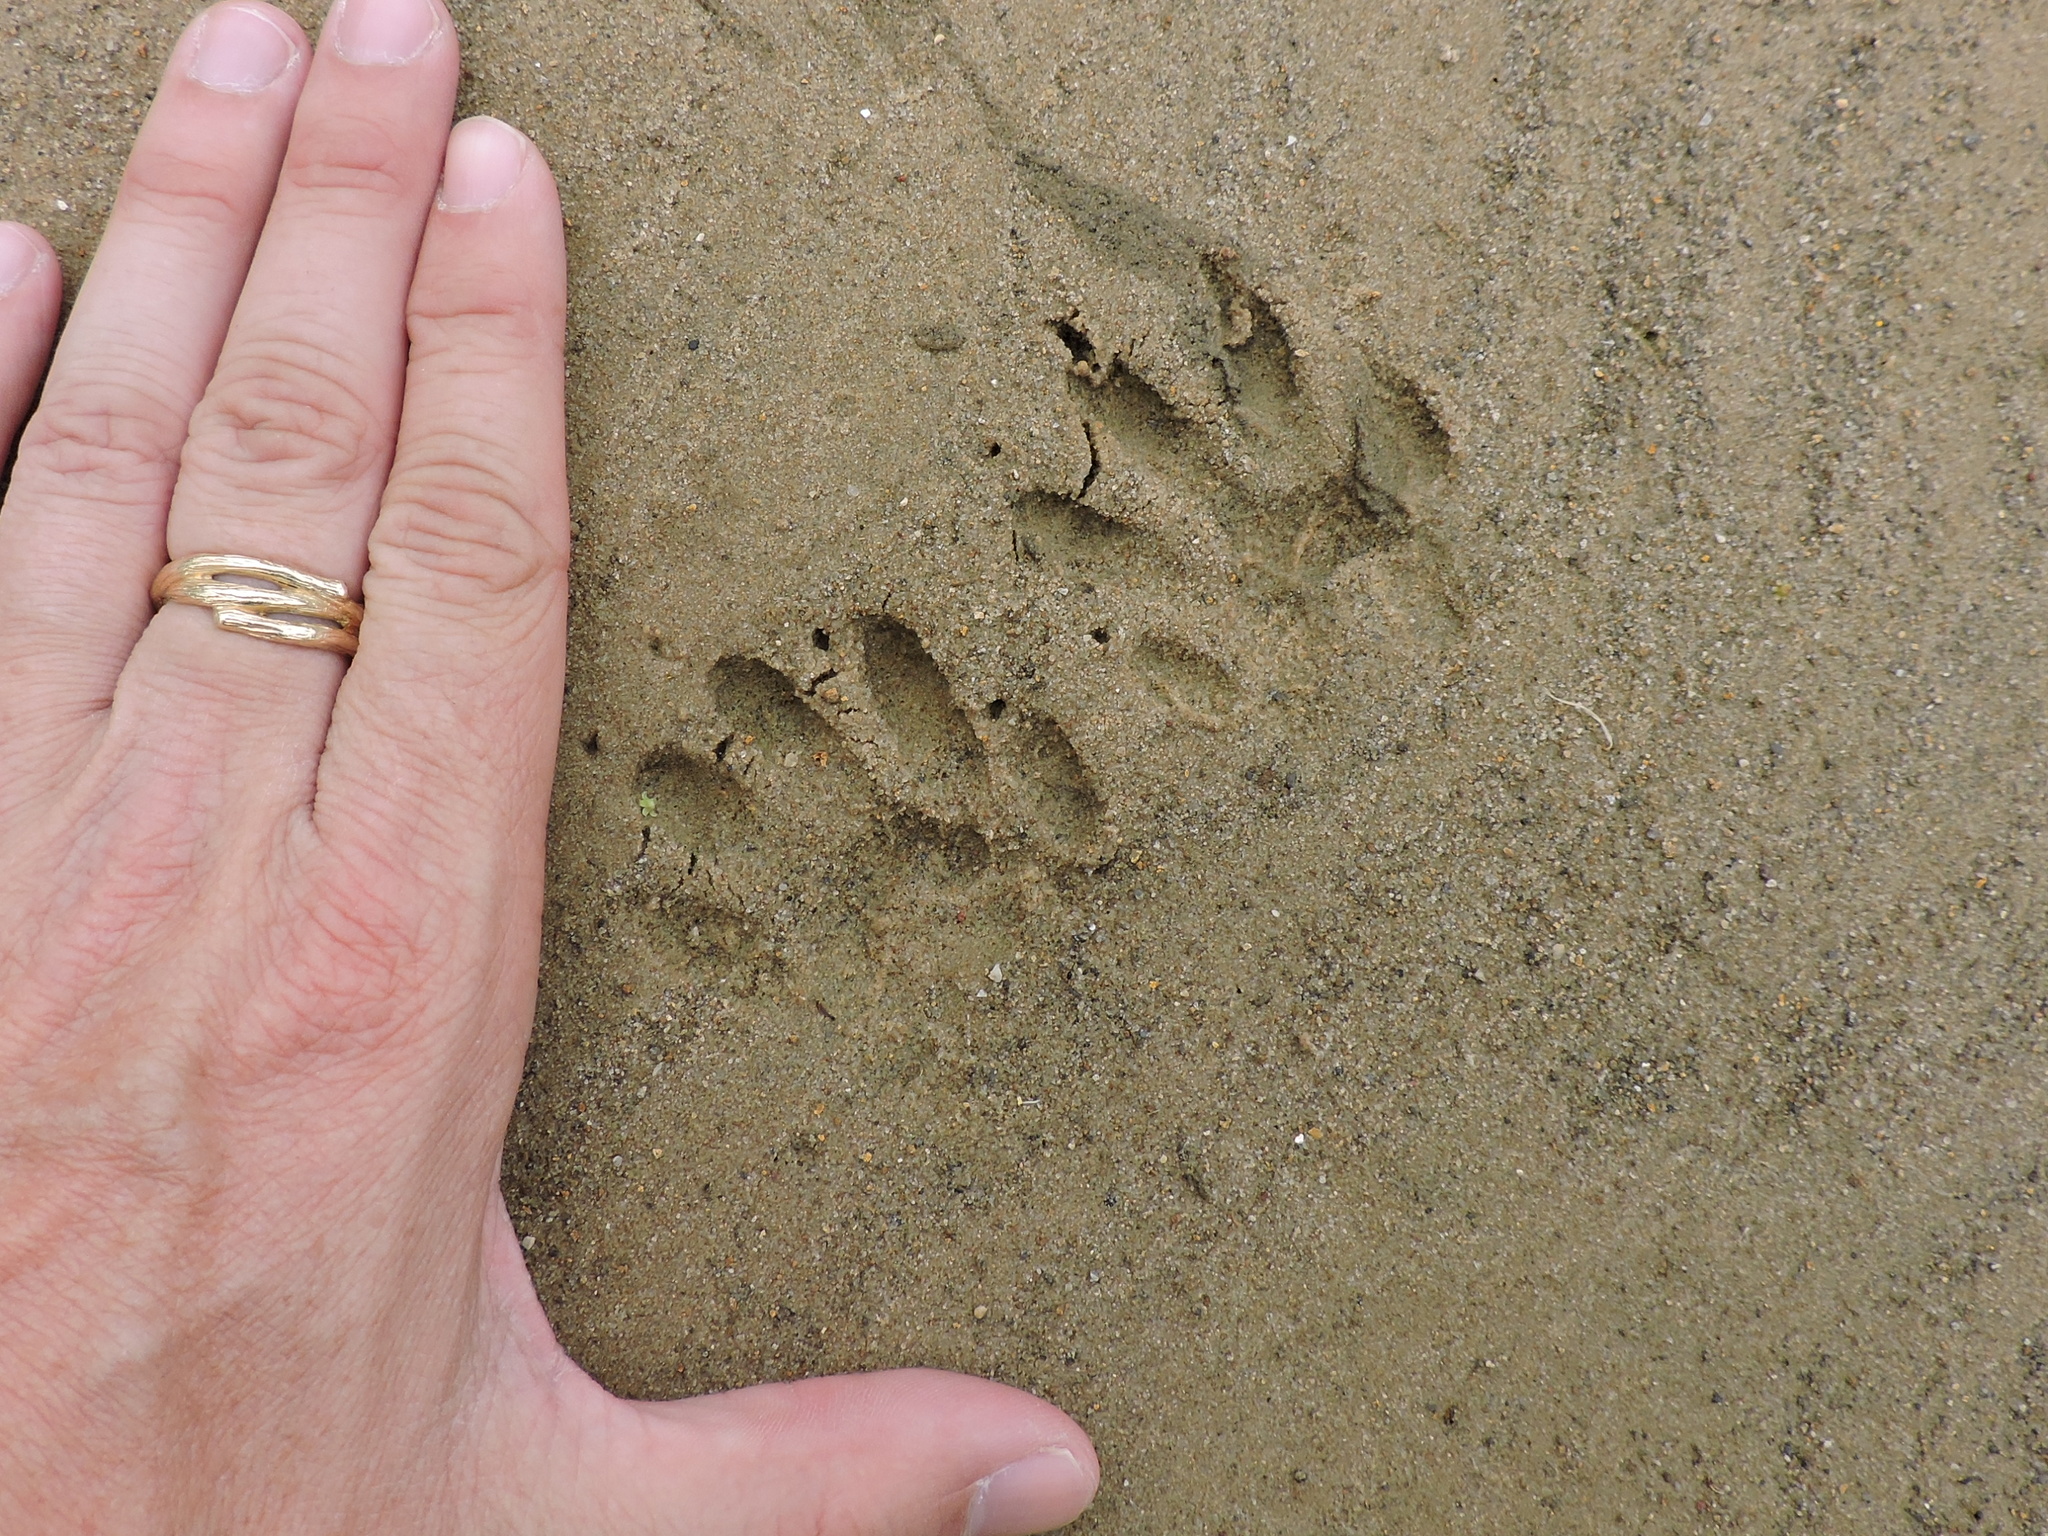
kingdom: Animalia
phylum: Chordata
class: Mammalia
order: Carnivora
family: Procyonidae
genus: Procyon
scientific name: Procyon lotor
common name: Raccoon
